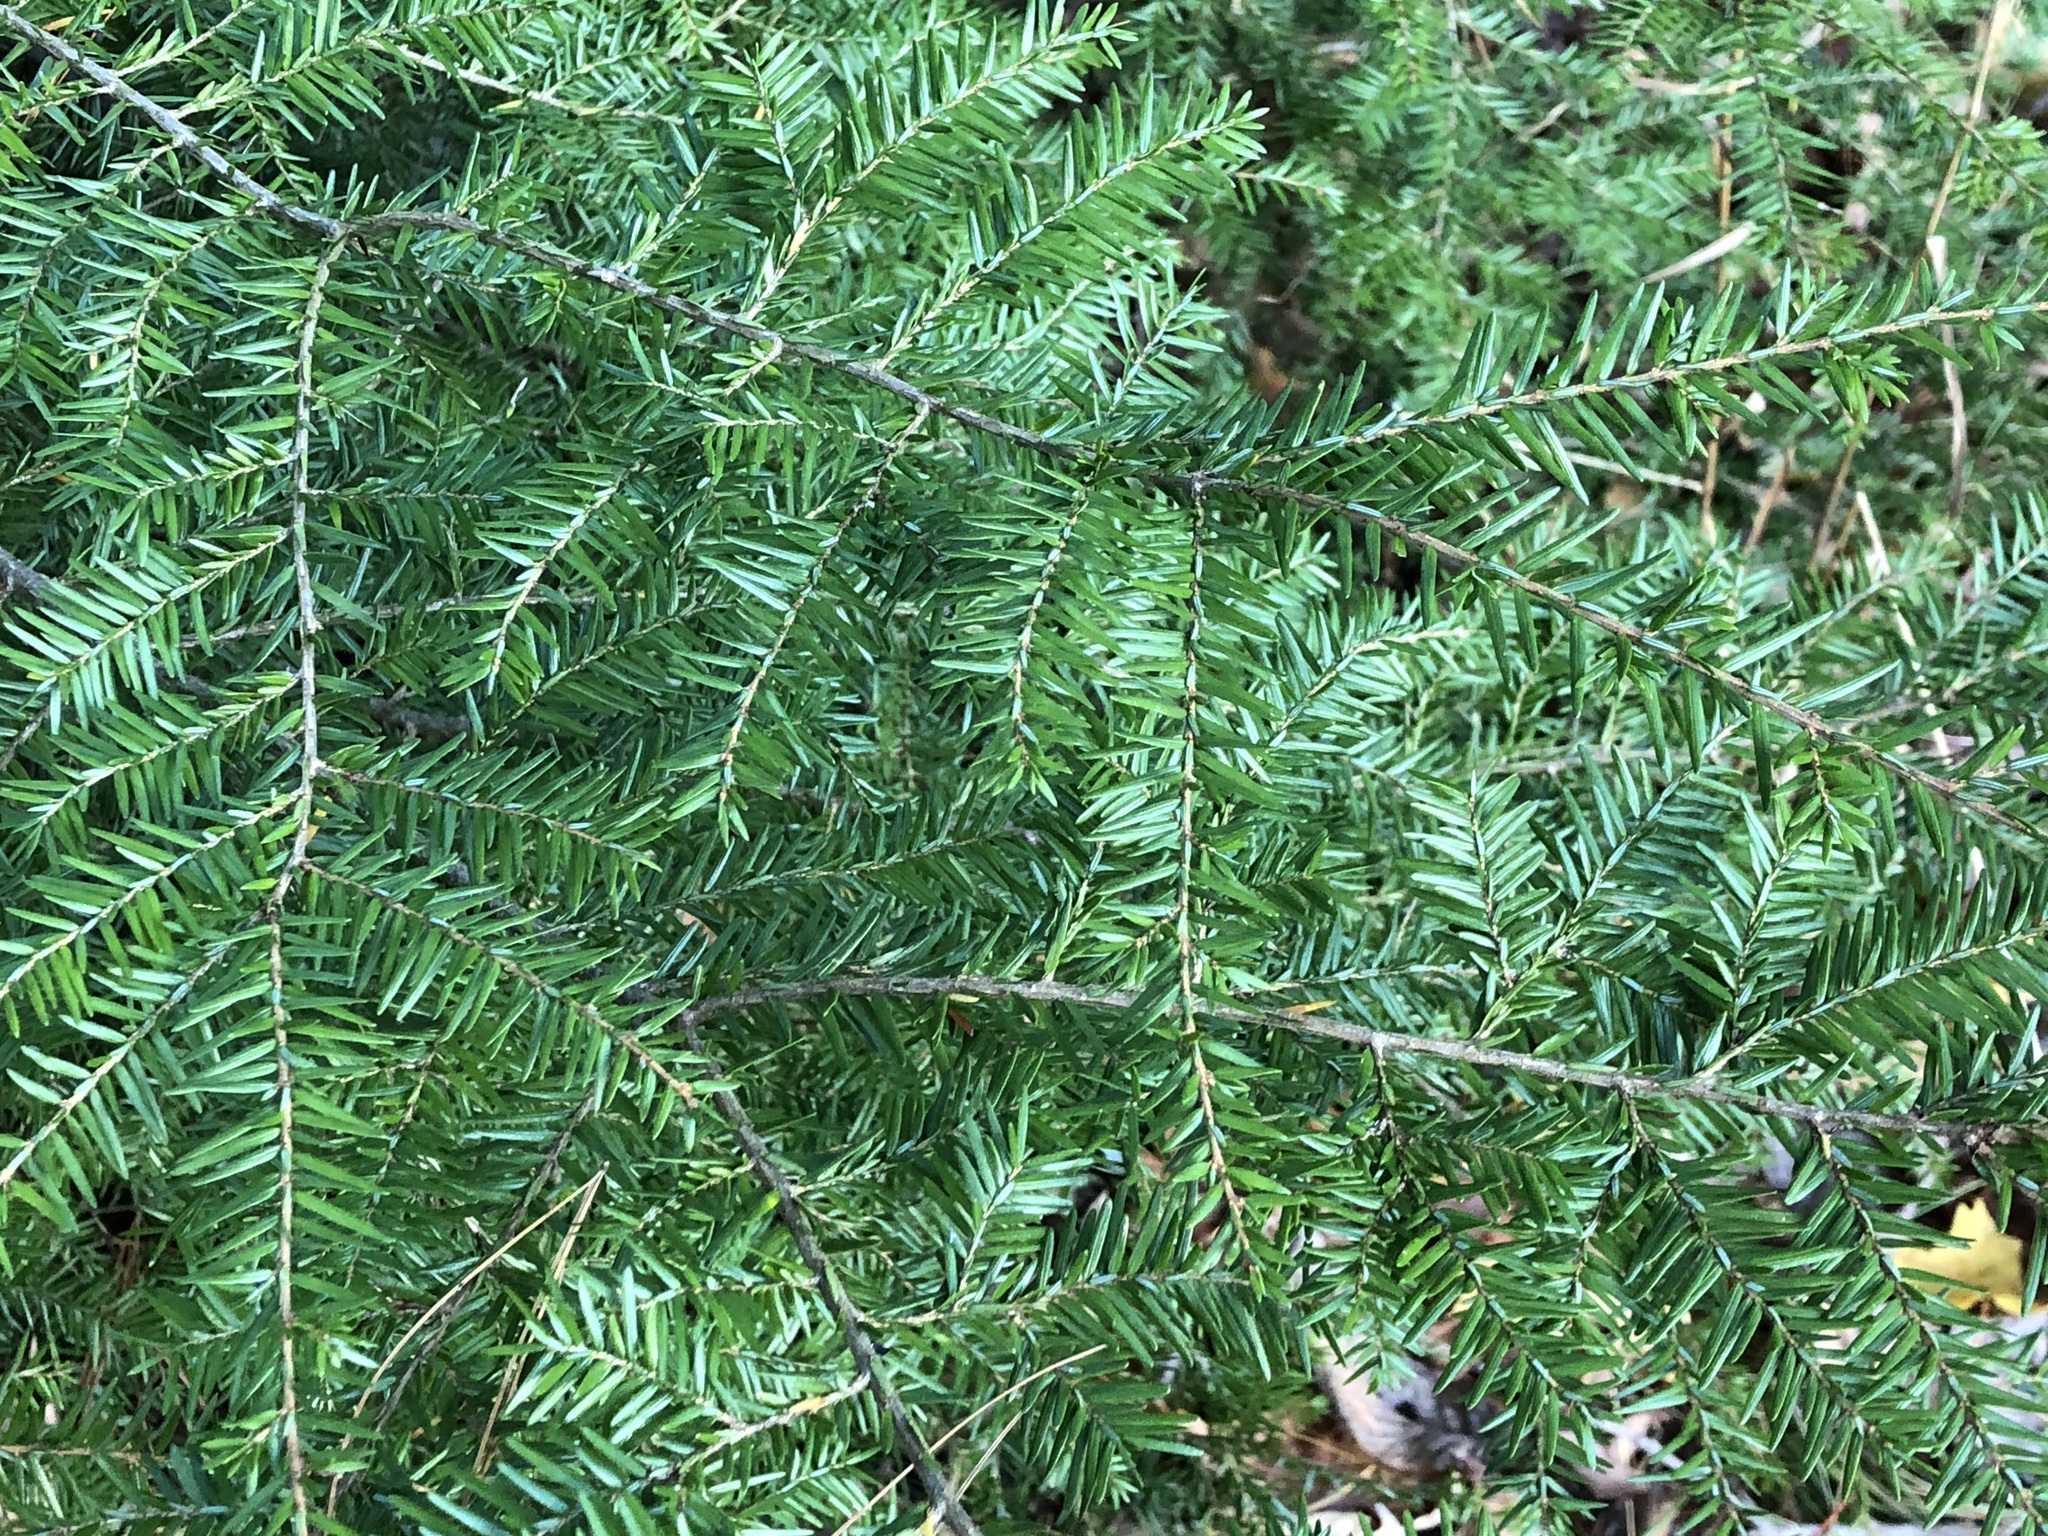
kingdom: Plantae
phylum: Tracheophyta
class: Pinopsida
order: Pinales
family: Pinaceae
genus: Tsuga
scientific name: Tsuga canadensis
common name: Eastern hemlock
